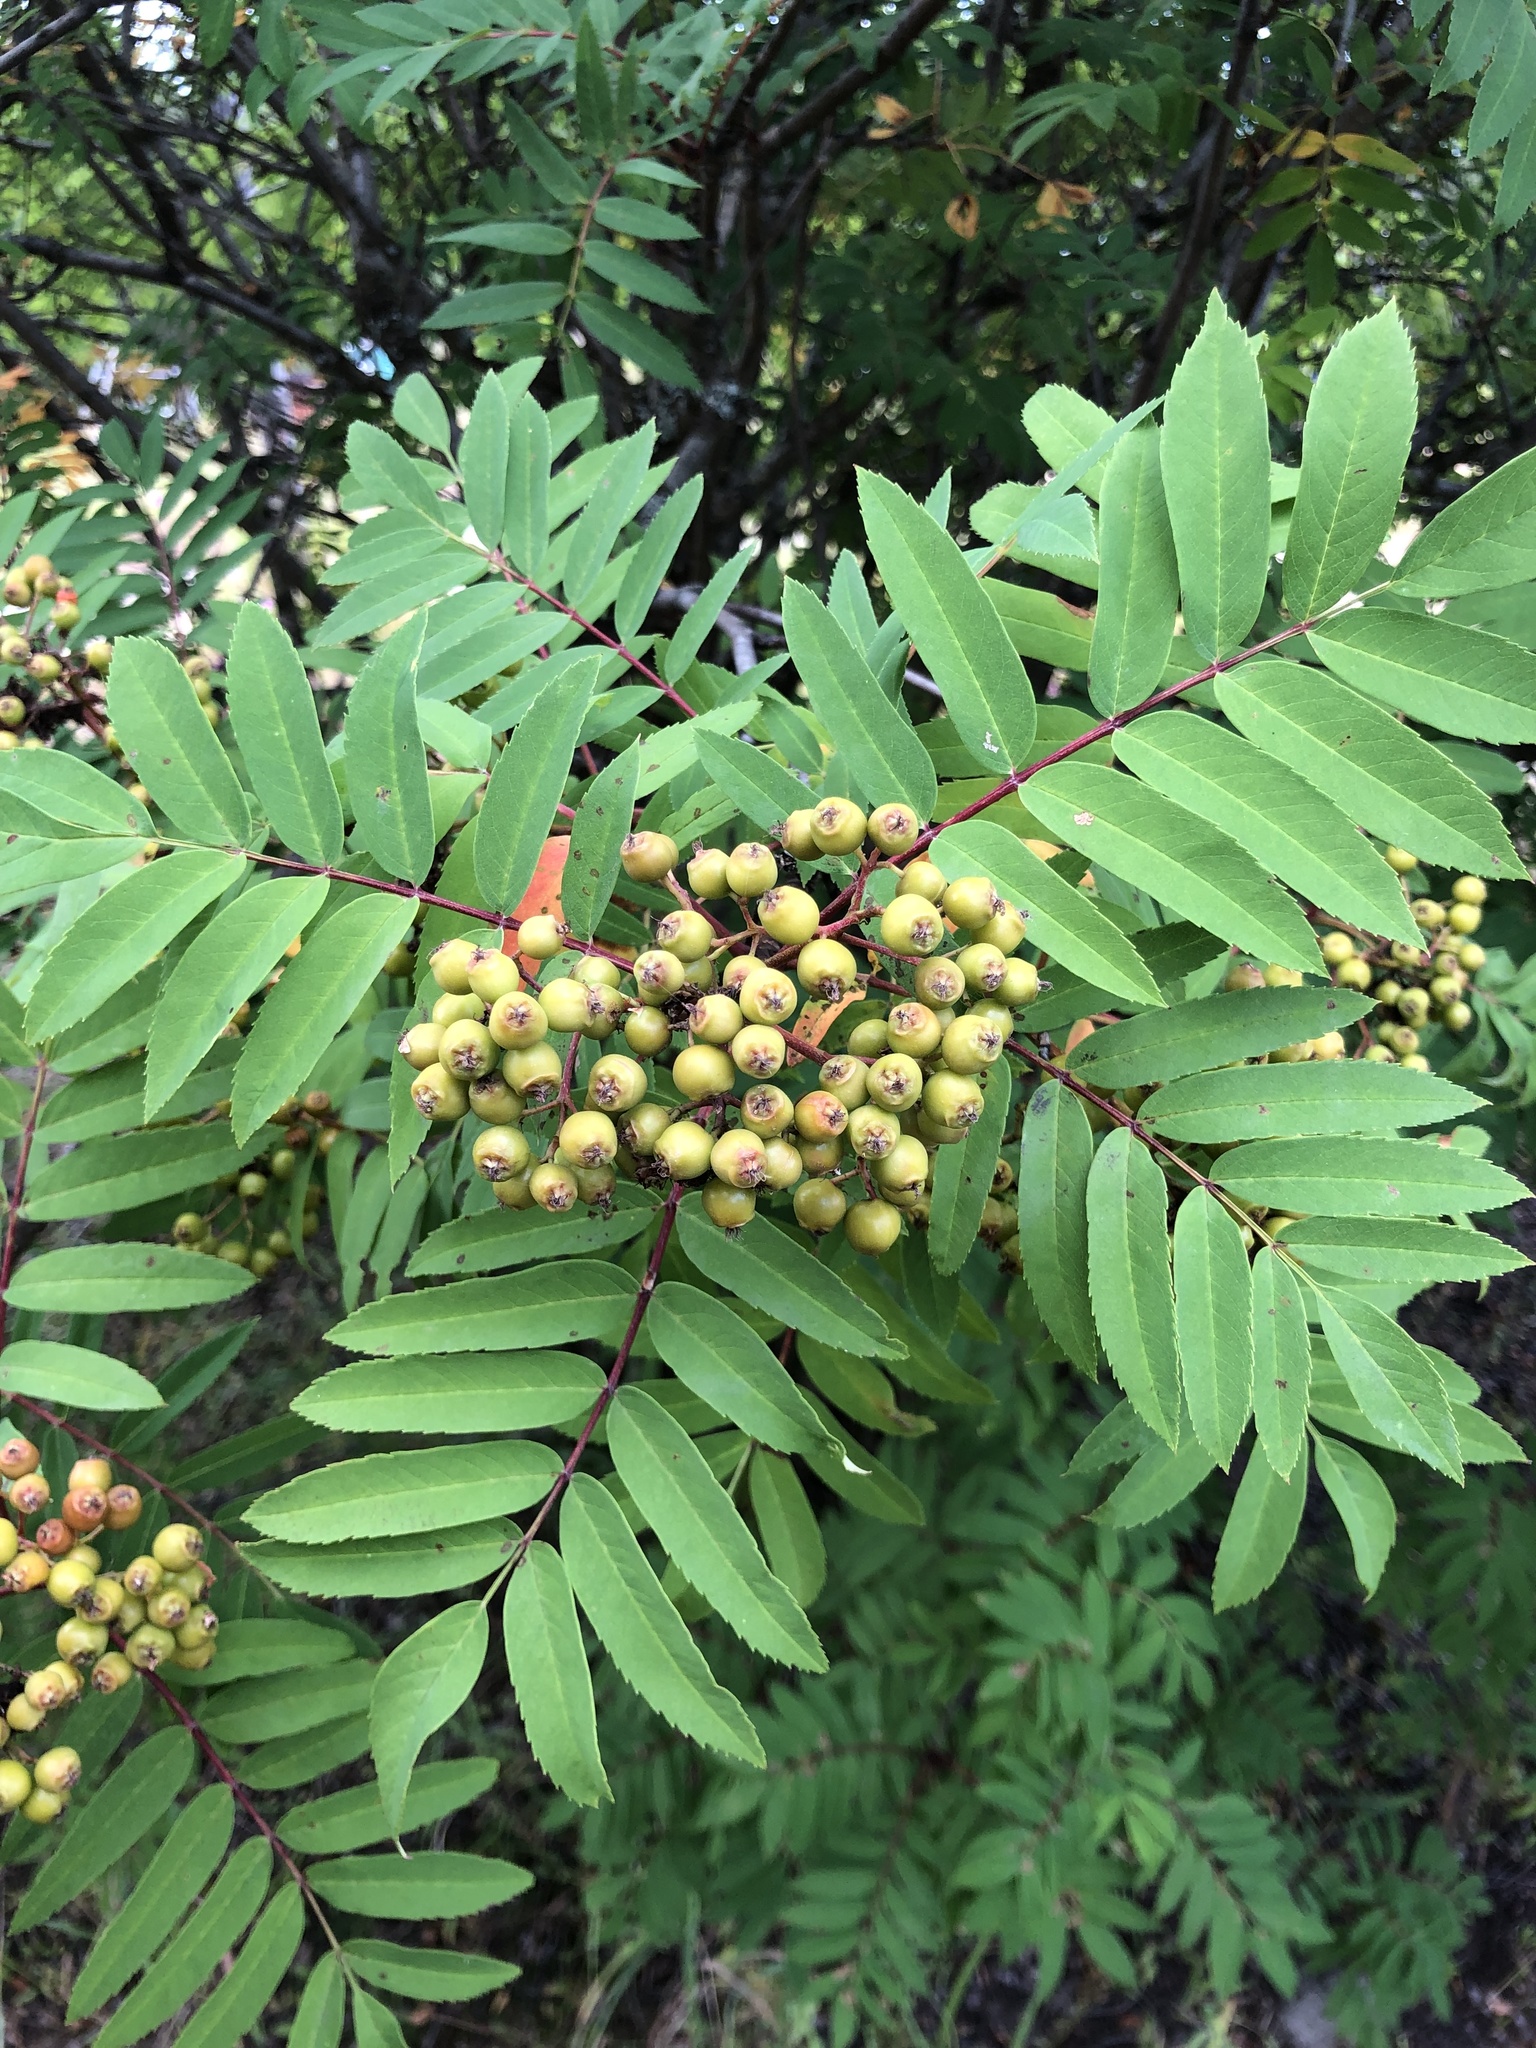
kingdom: Plantae
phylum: Tracheophyta
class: Magnoliopsida
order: Rosales
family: Rosaceae
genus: Sorbus
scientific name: Sorbus aucuparia
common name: Rowan
